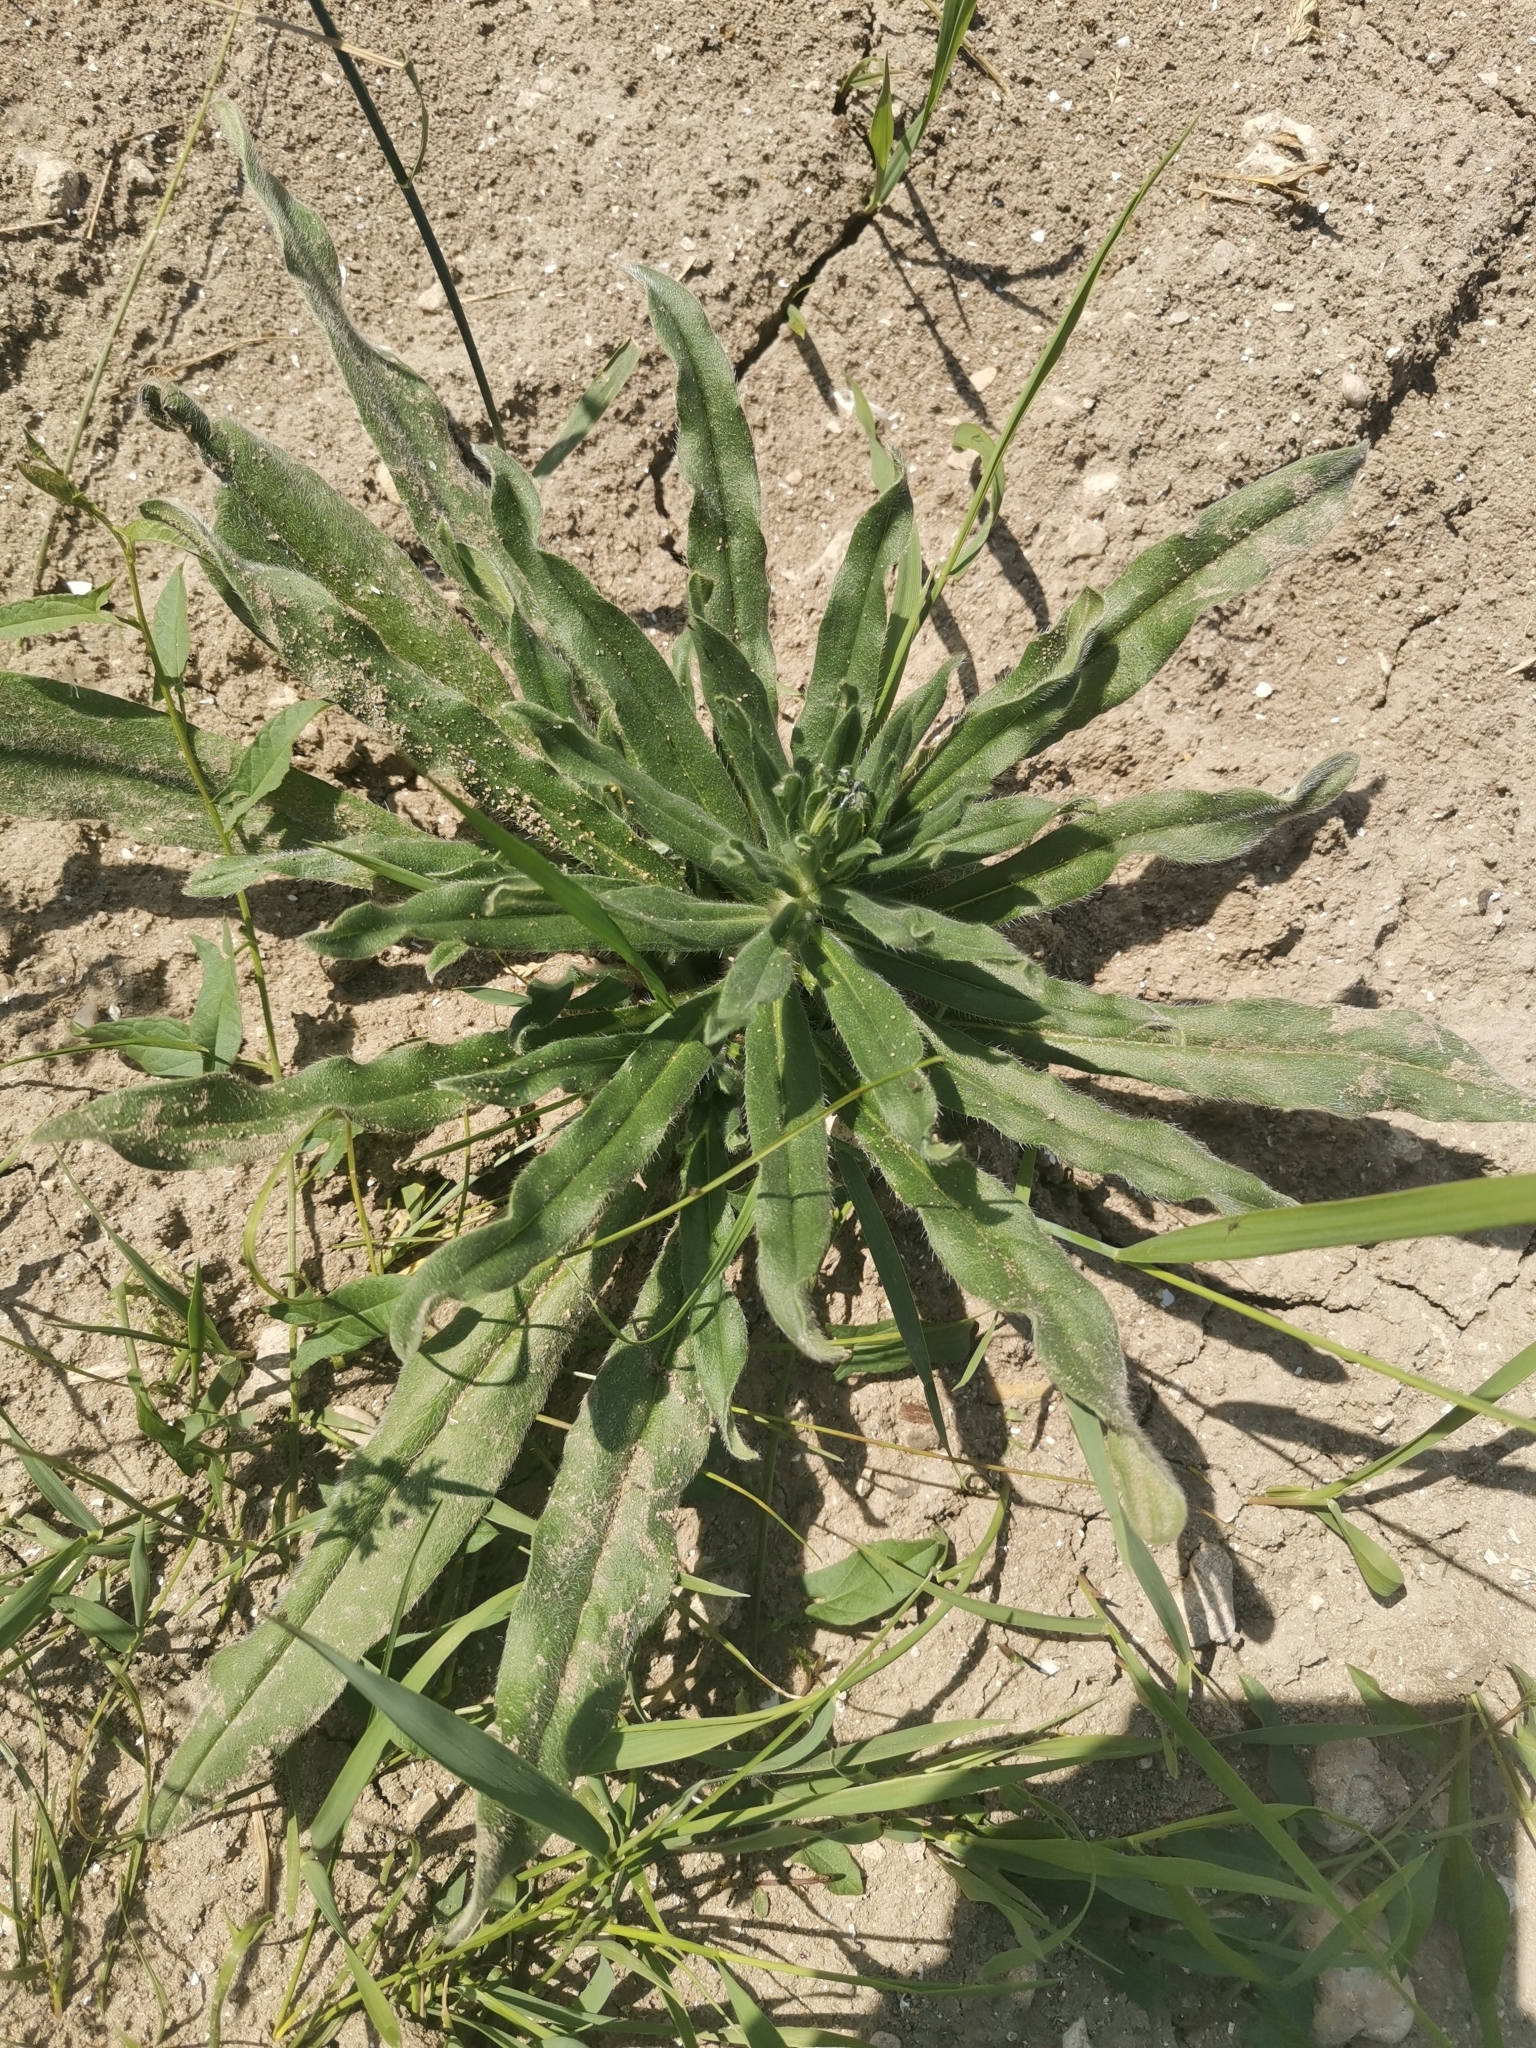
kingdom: Plantae
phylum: Tracheophyta
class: Magnoliopsida
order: Boraginales
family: Boraginaceae
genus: Echium
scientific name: Echium vulgare
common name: Common viper's bugloss
